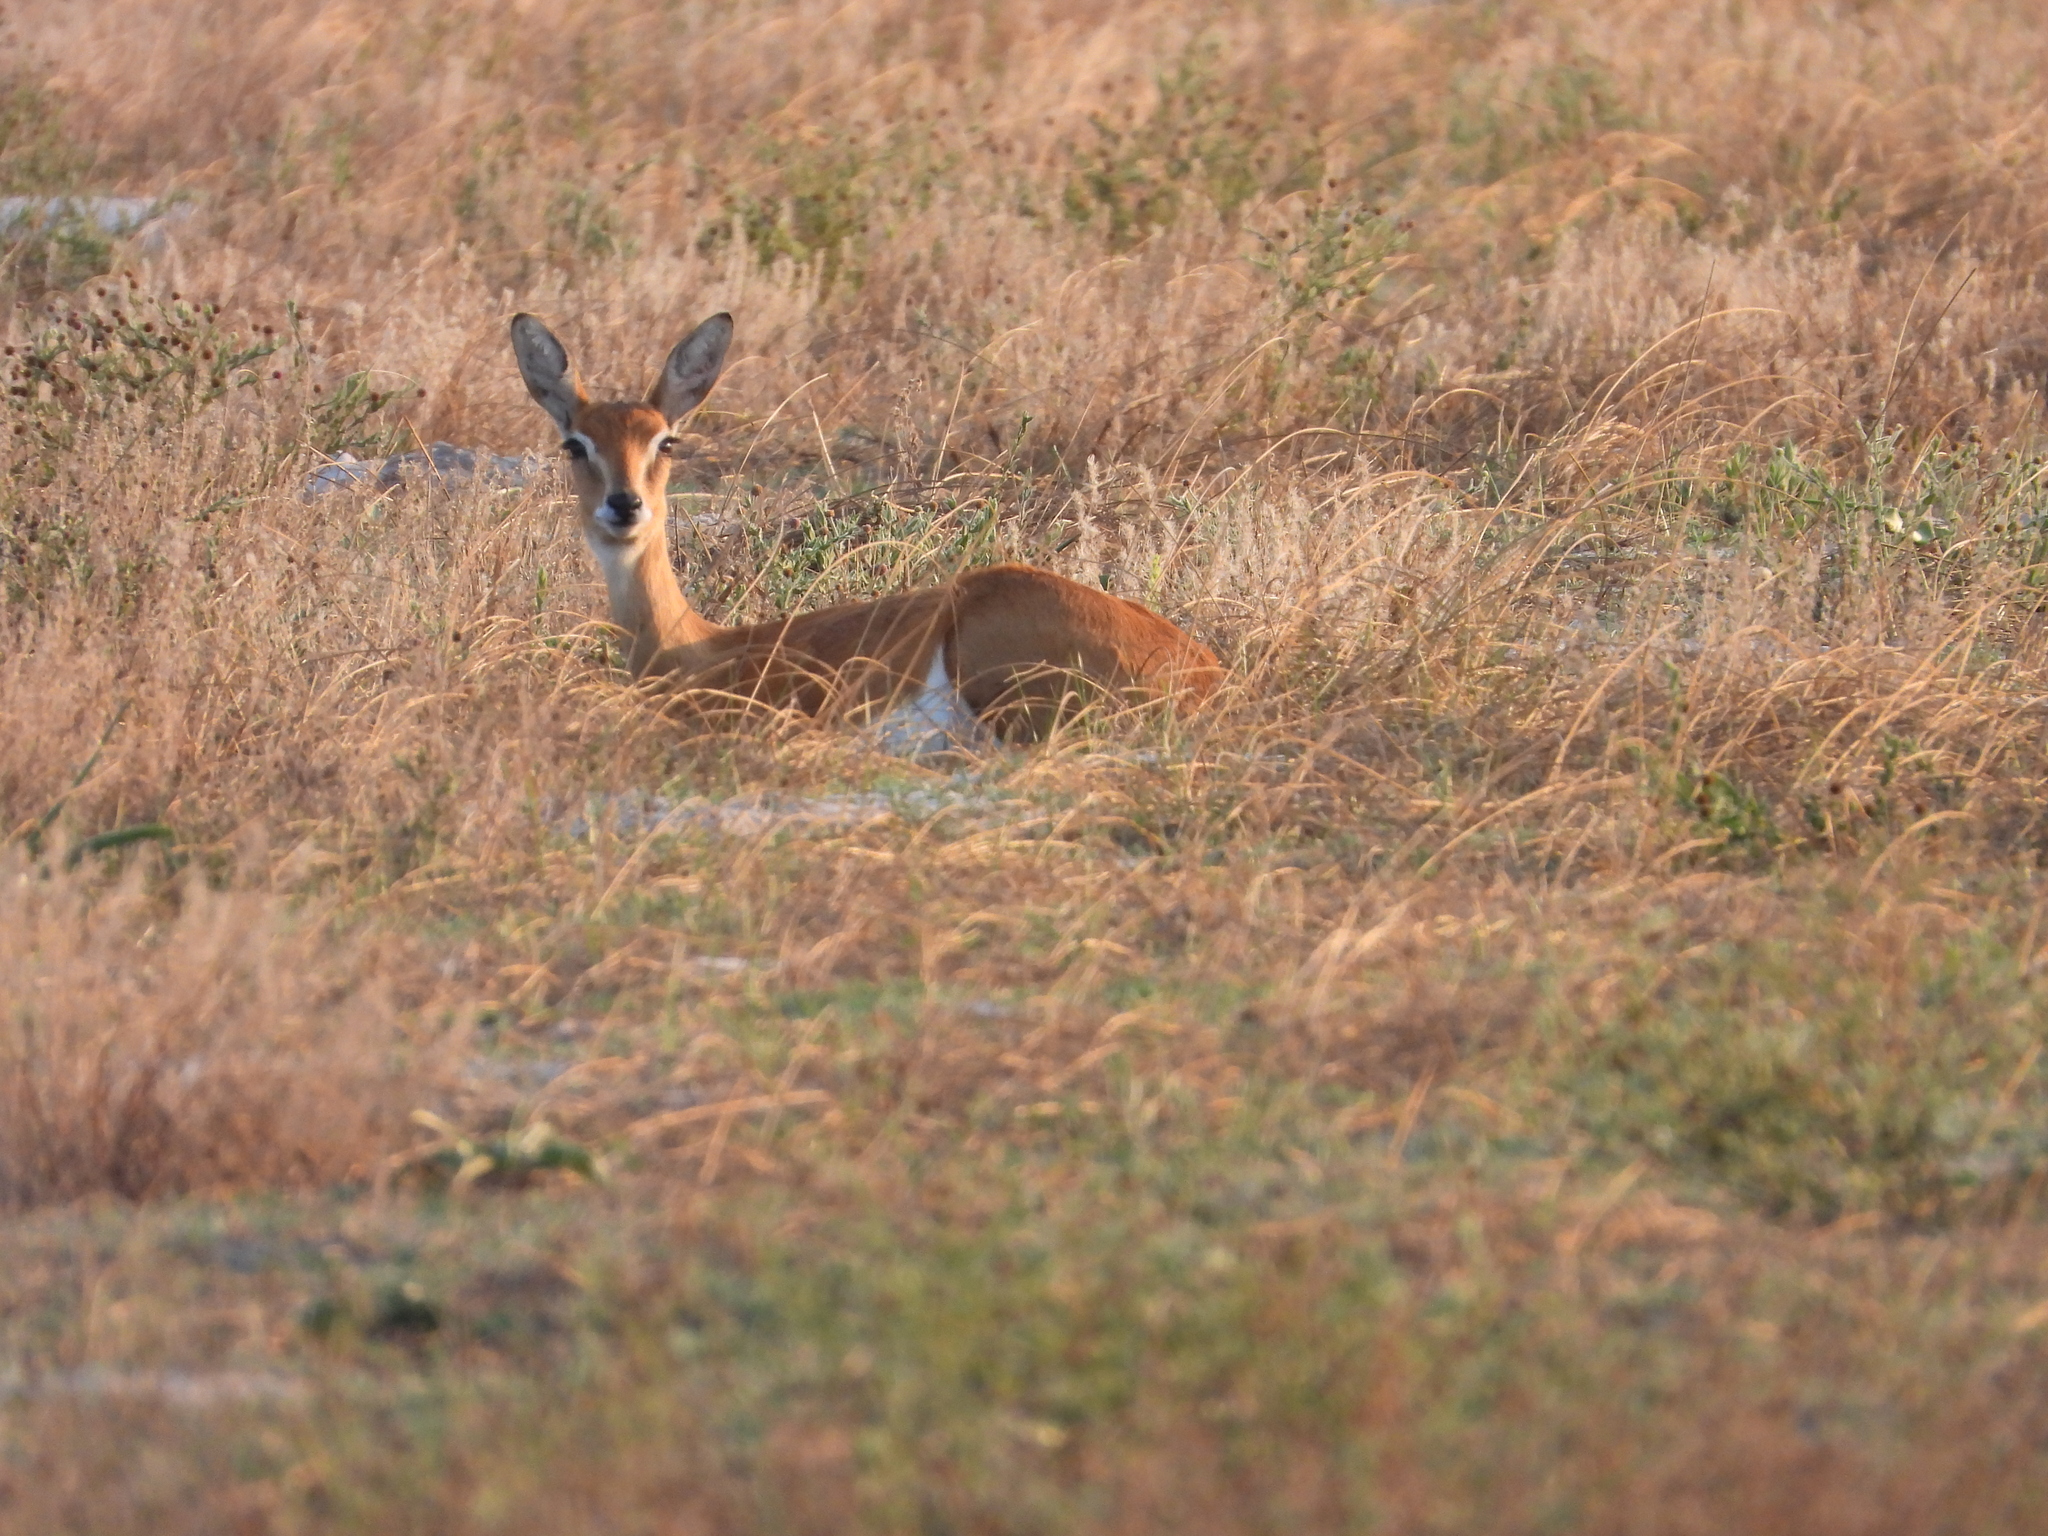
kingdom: Animalia
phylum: Chordata
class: Mammalia
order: Artiodactyla
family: Bovidae
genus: Ourebia
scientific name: Ourebia ourebi
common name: Oribi
